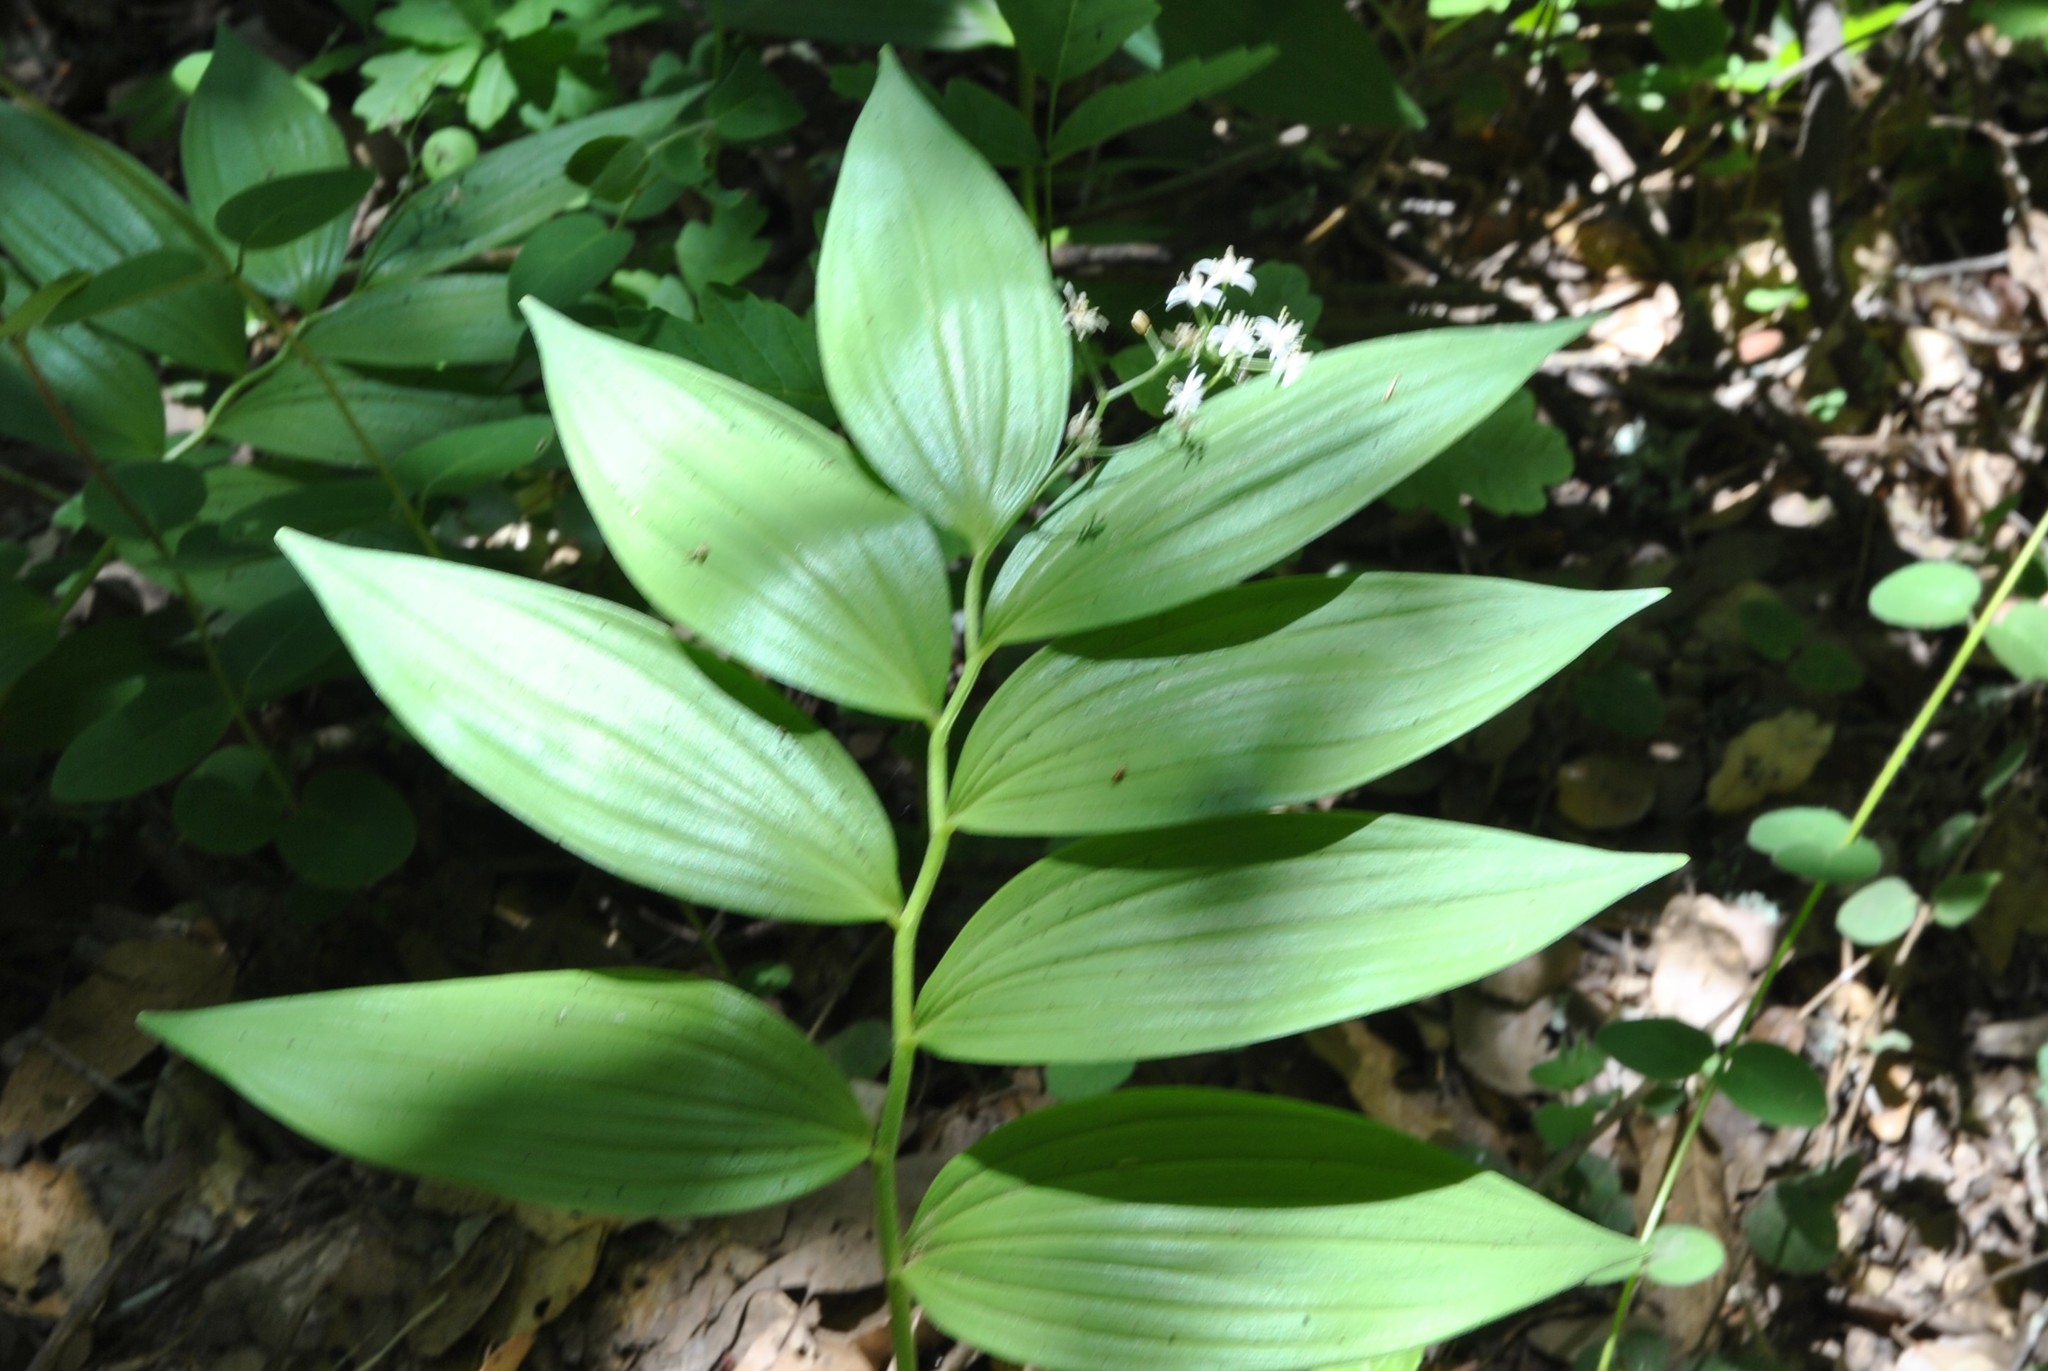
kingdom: Plantae
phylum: Tracheophyta
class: Liliopsida
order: Asparagales
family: Asparagaceae
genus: Maianthemum
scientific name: Maianthemum stellatum
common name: Little false solomon's seal
